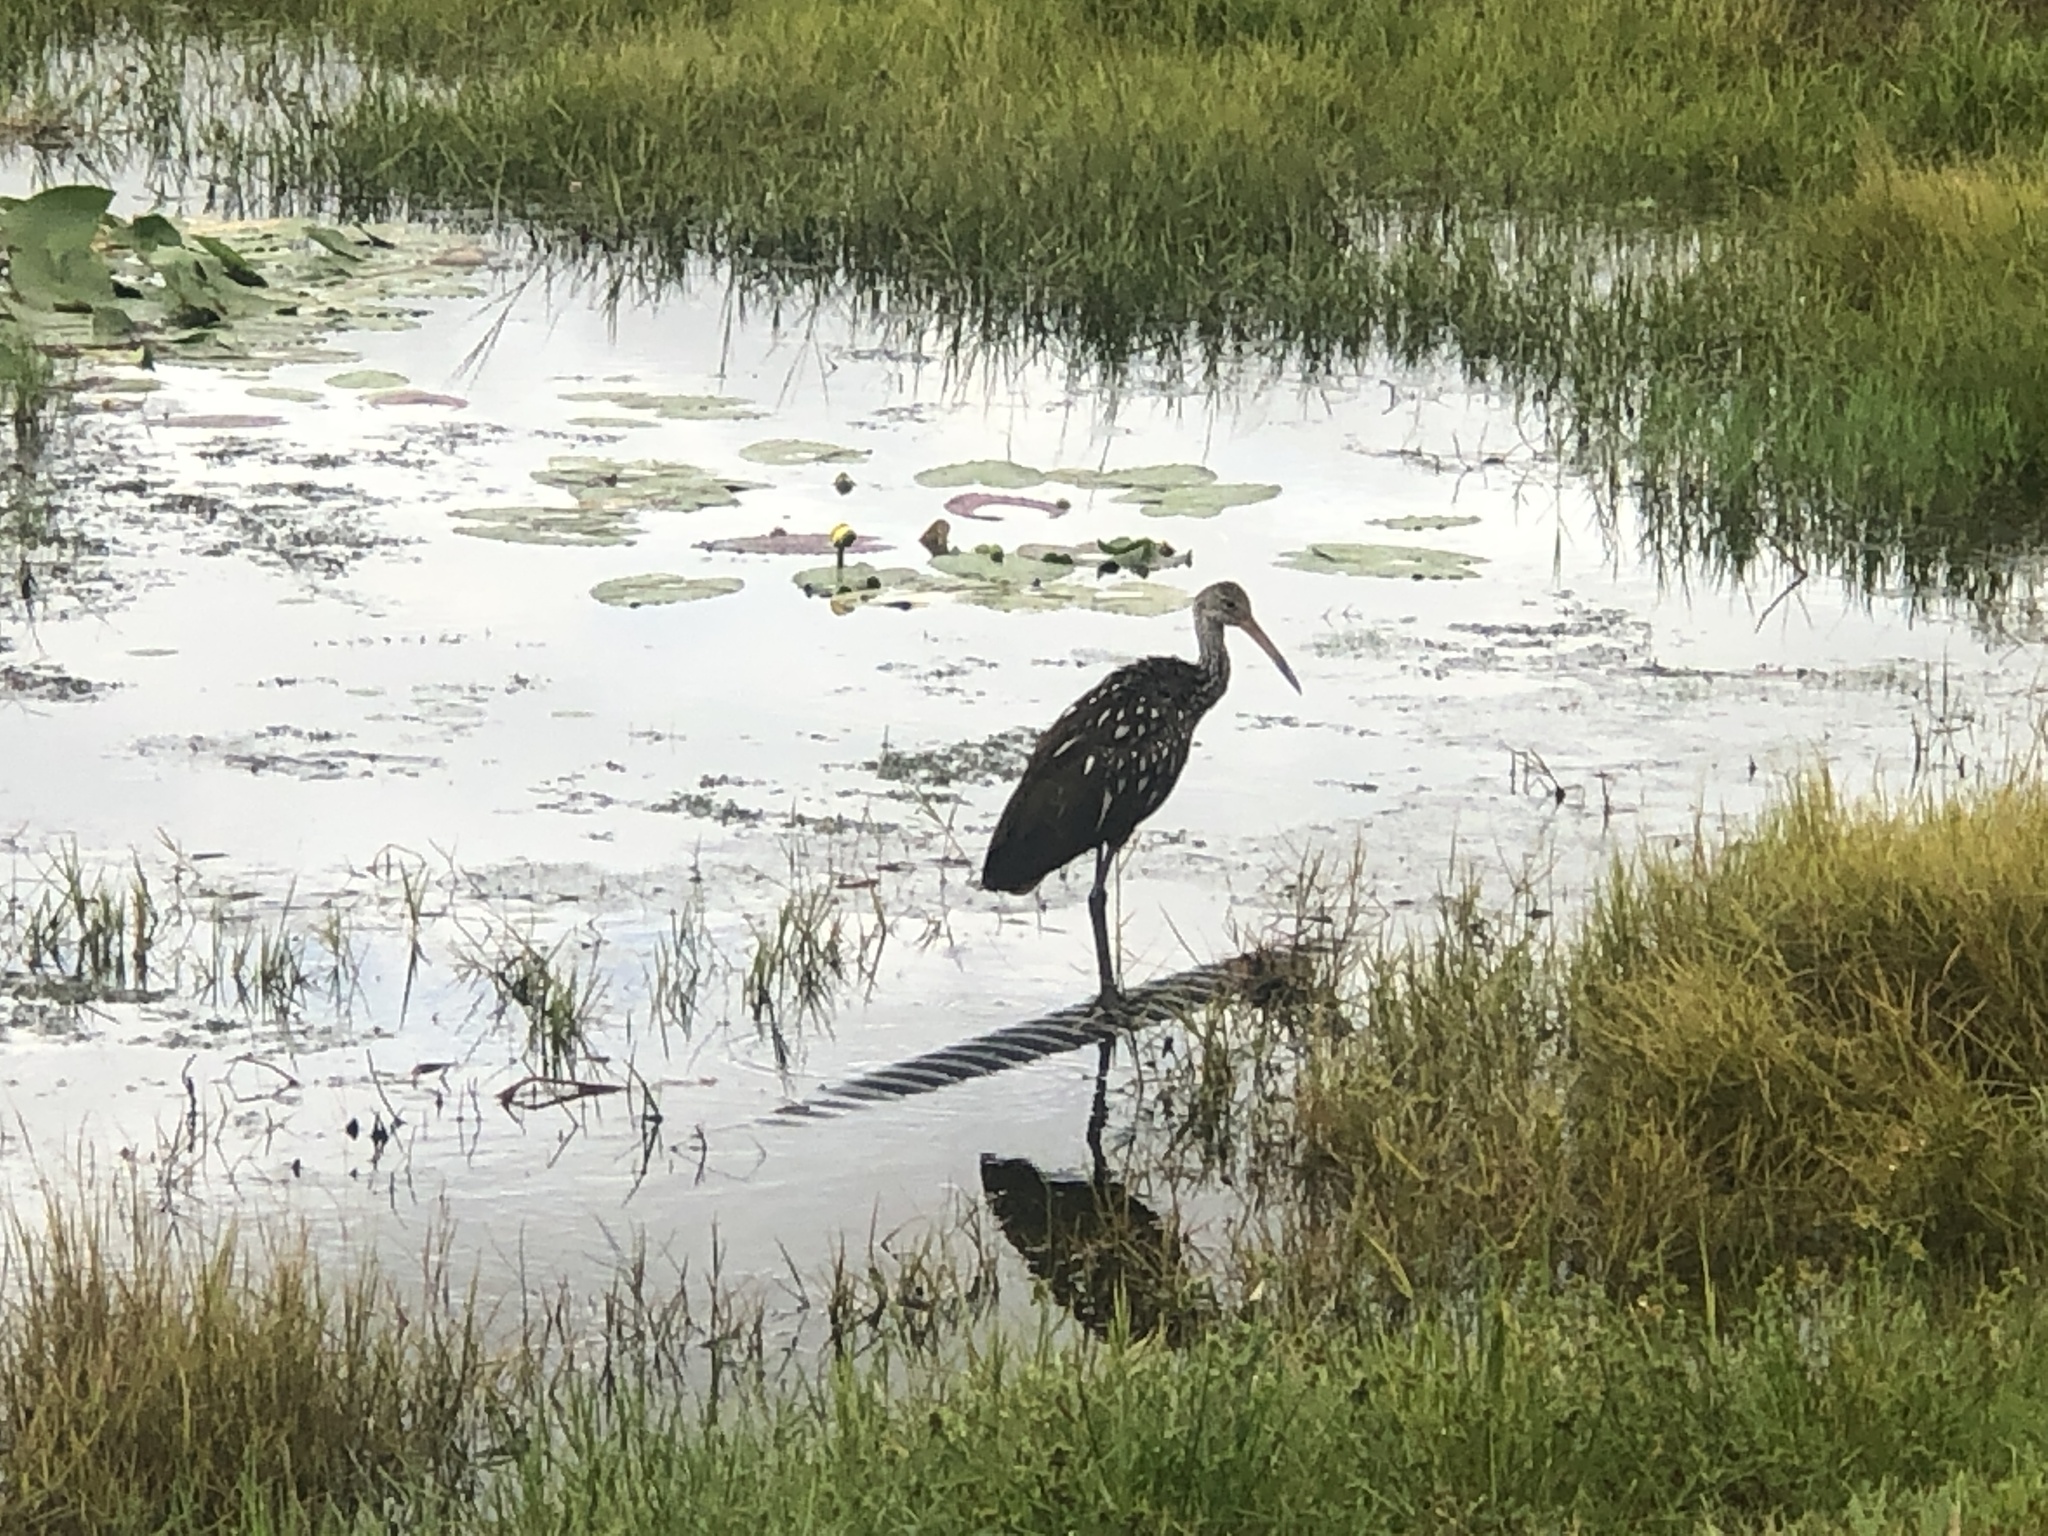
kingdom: Animalia
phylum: Chordata
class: Aves
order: Gruiformes
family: Aramidae
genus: Aramus
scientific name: Aramus guarauna
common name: Limpkin
